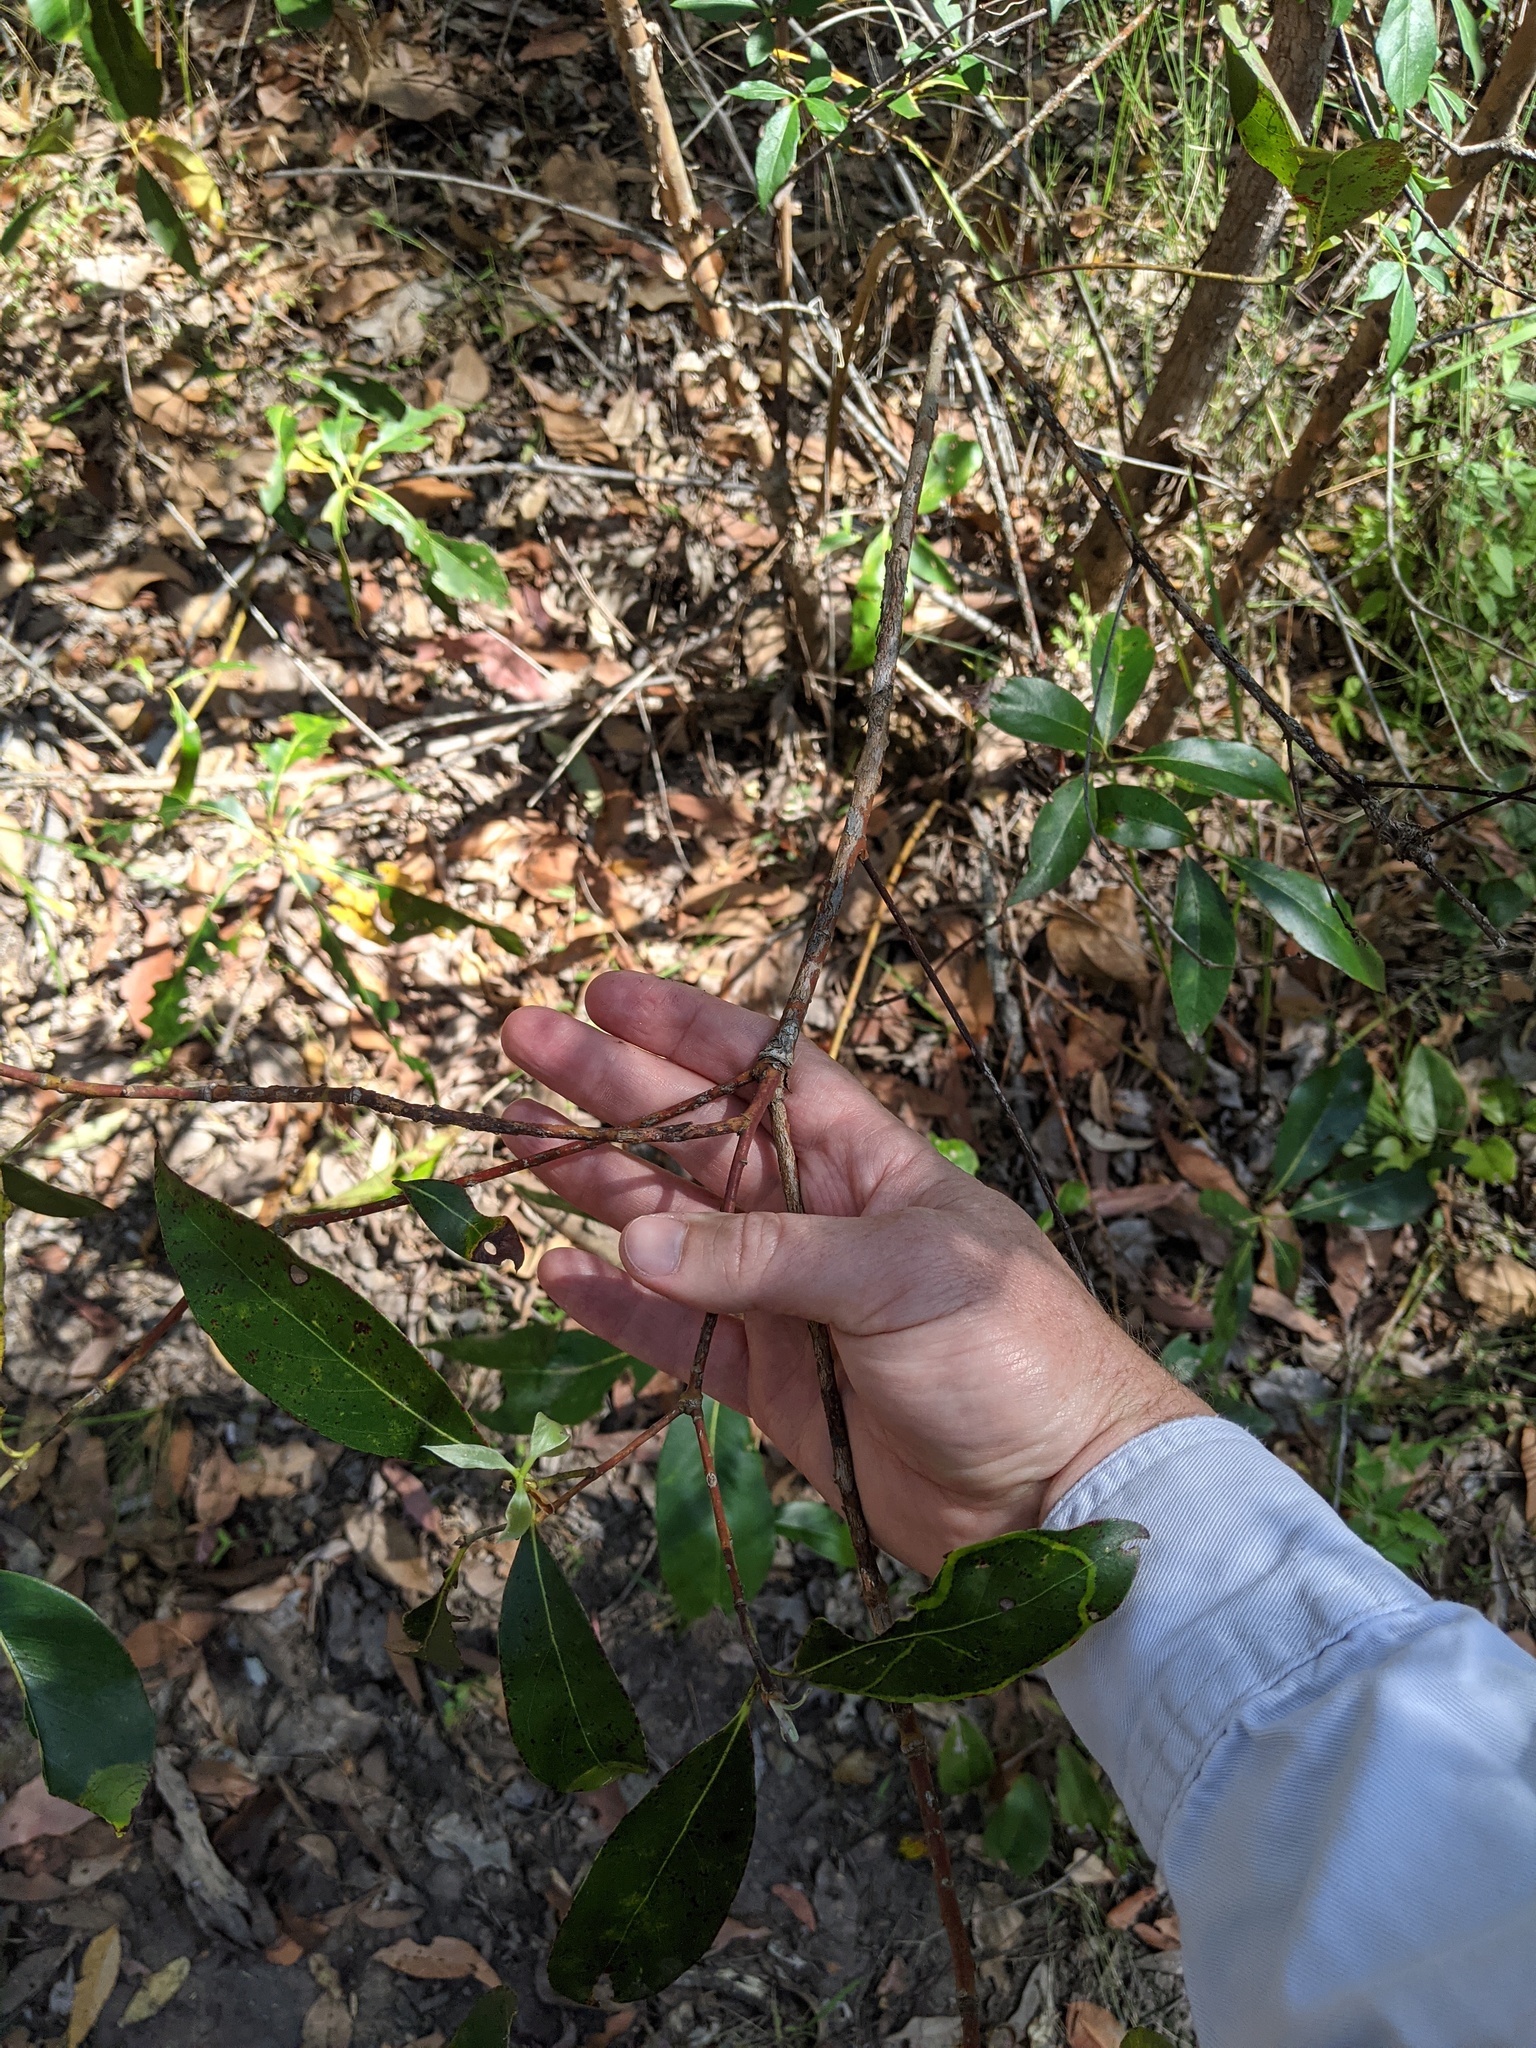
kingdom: Plantae
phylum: Tracheophyta
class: Magnoliopsida
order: Myrtales
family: Myrtaceae
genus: Lophostemon
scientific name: Lophostemon confertus
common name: Brisbane box
